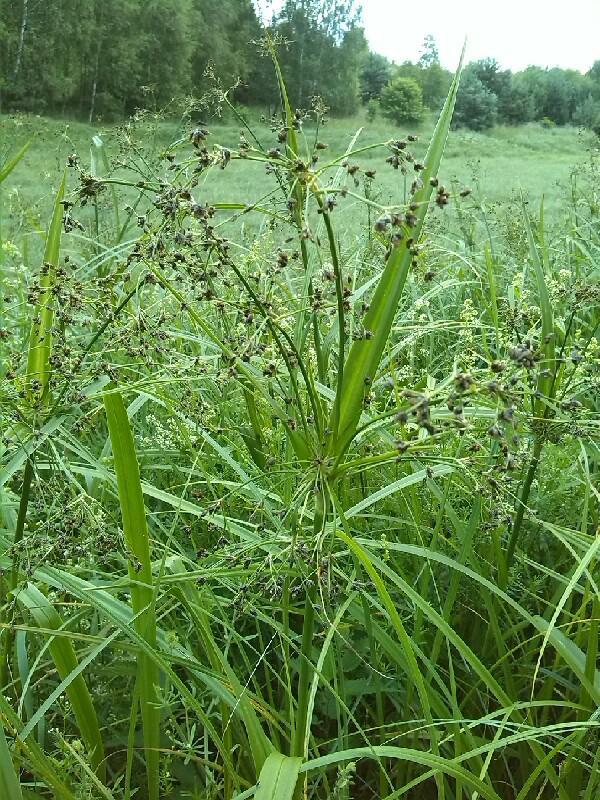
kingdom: Plantae
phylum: Tracheophyta
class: Liliopsida
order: Poales
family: Cyperaceae
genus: Scirpus
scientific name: Scirpus sylvaticus
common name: Wood club-rush
